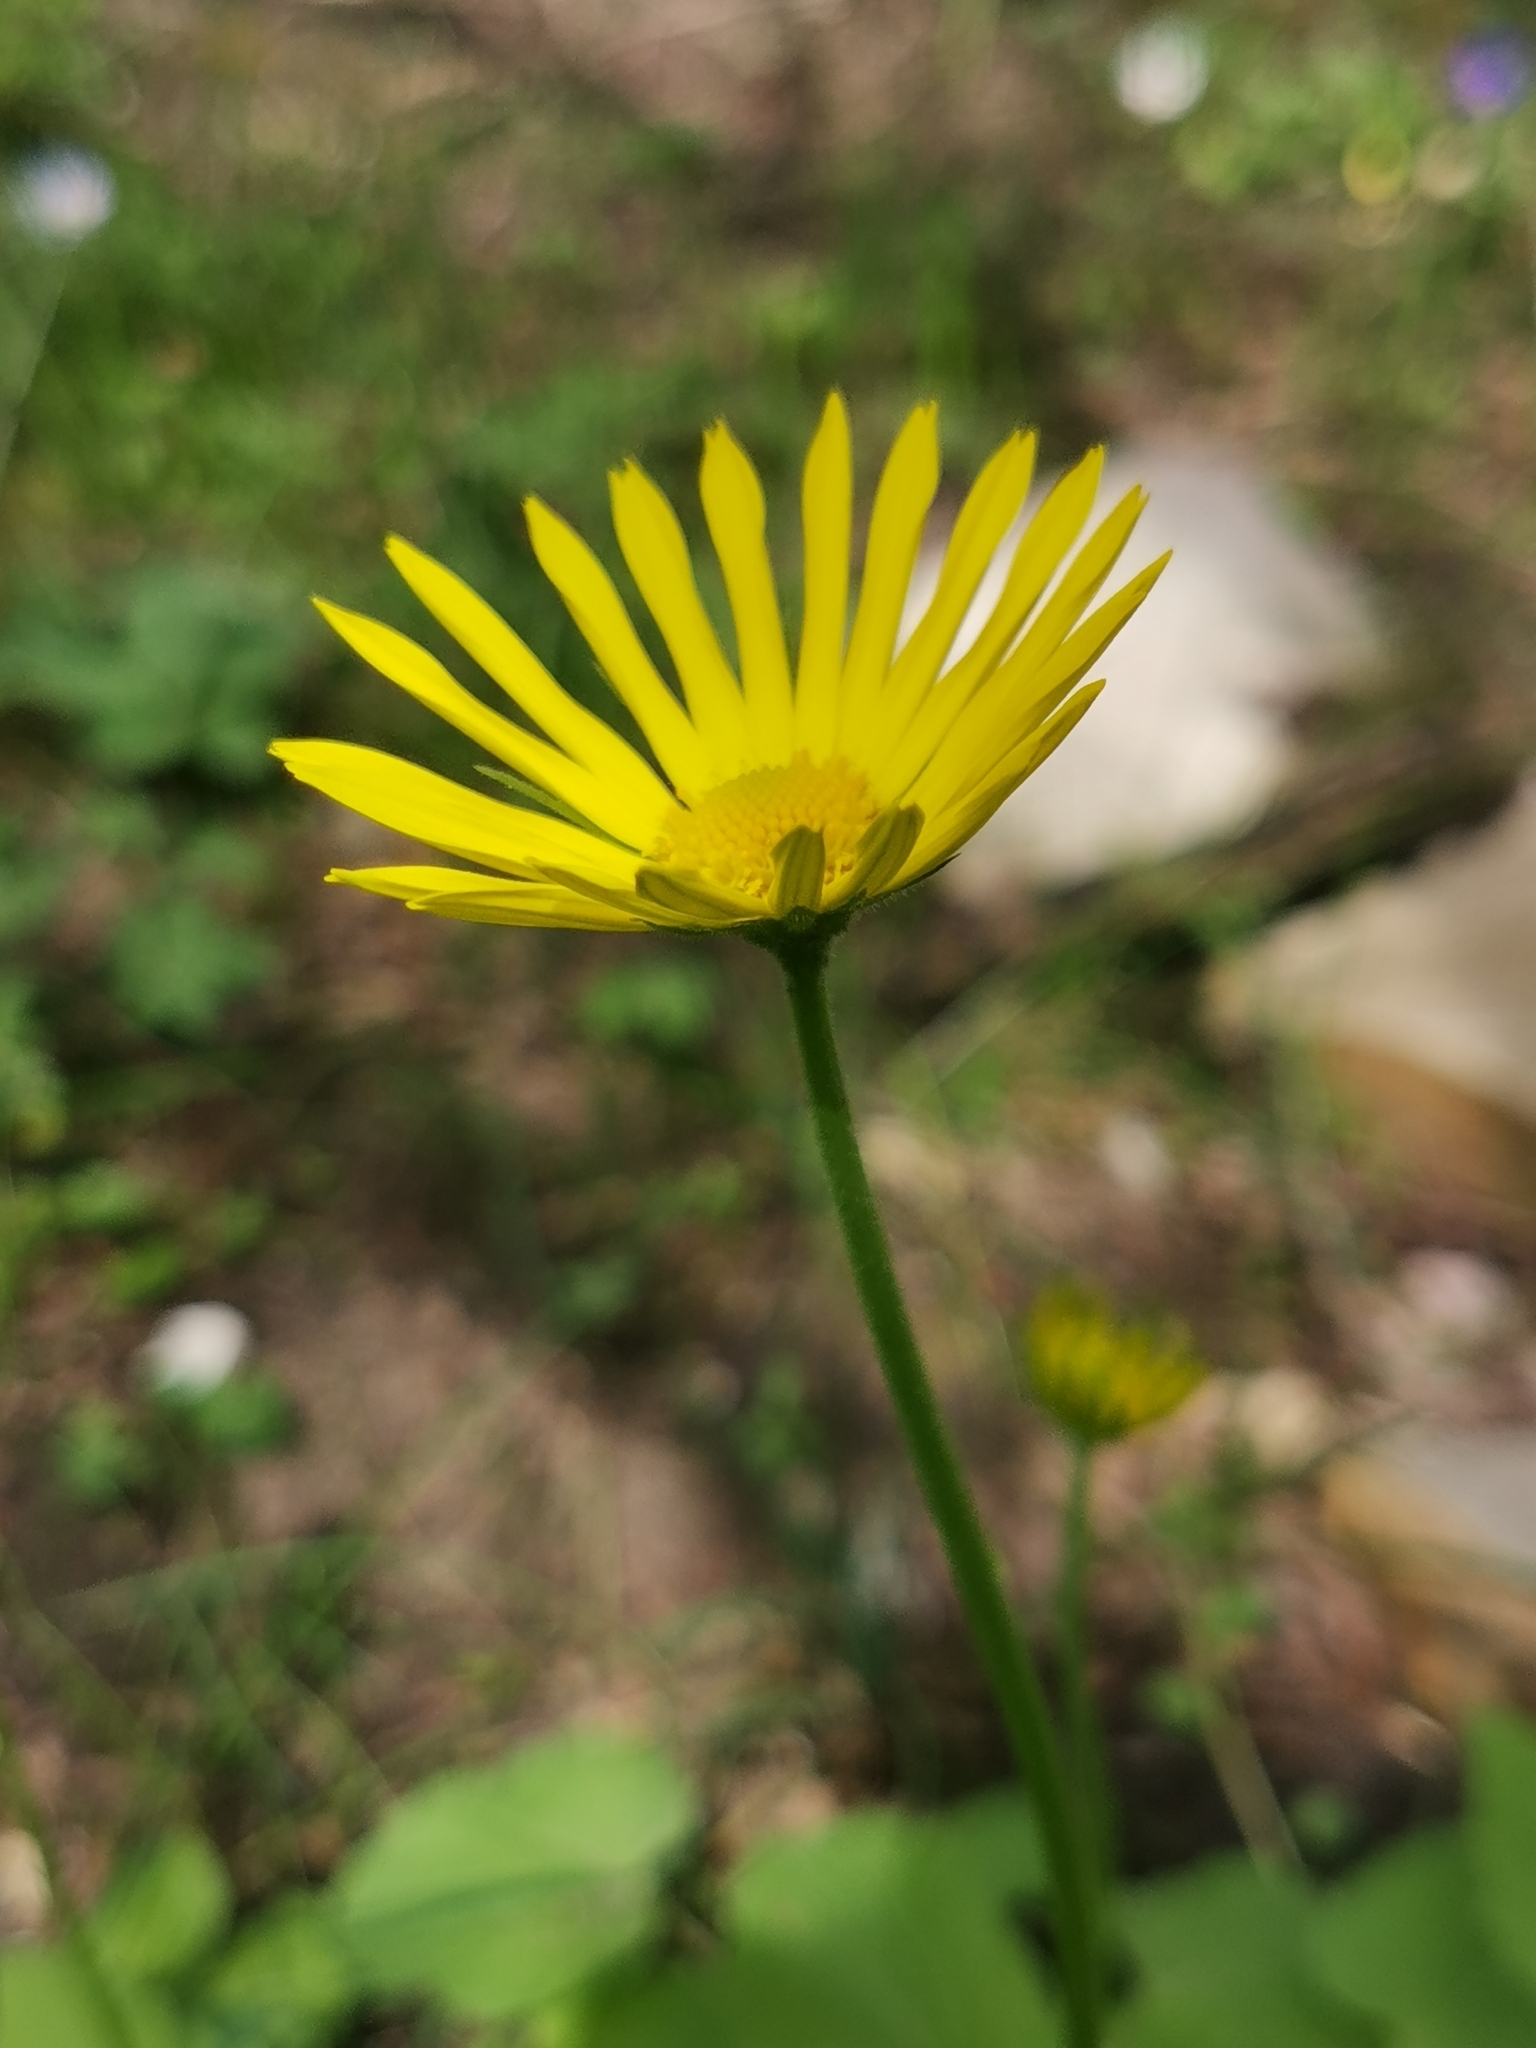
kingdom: Plantae
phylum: Tracheophyta
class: Magnoliopsida
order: Asterales
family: Asteraceae
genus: Doronicum
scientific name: Doronicum
